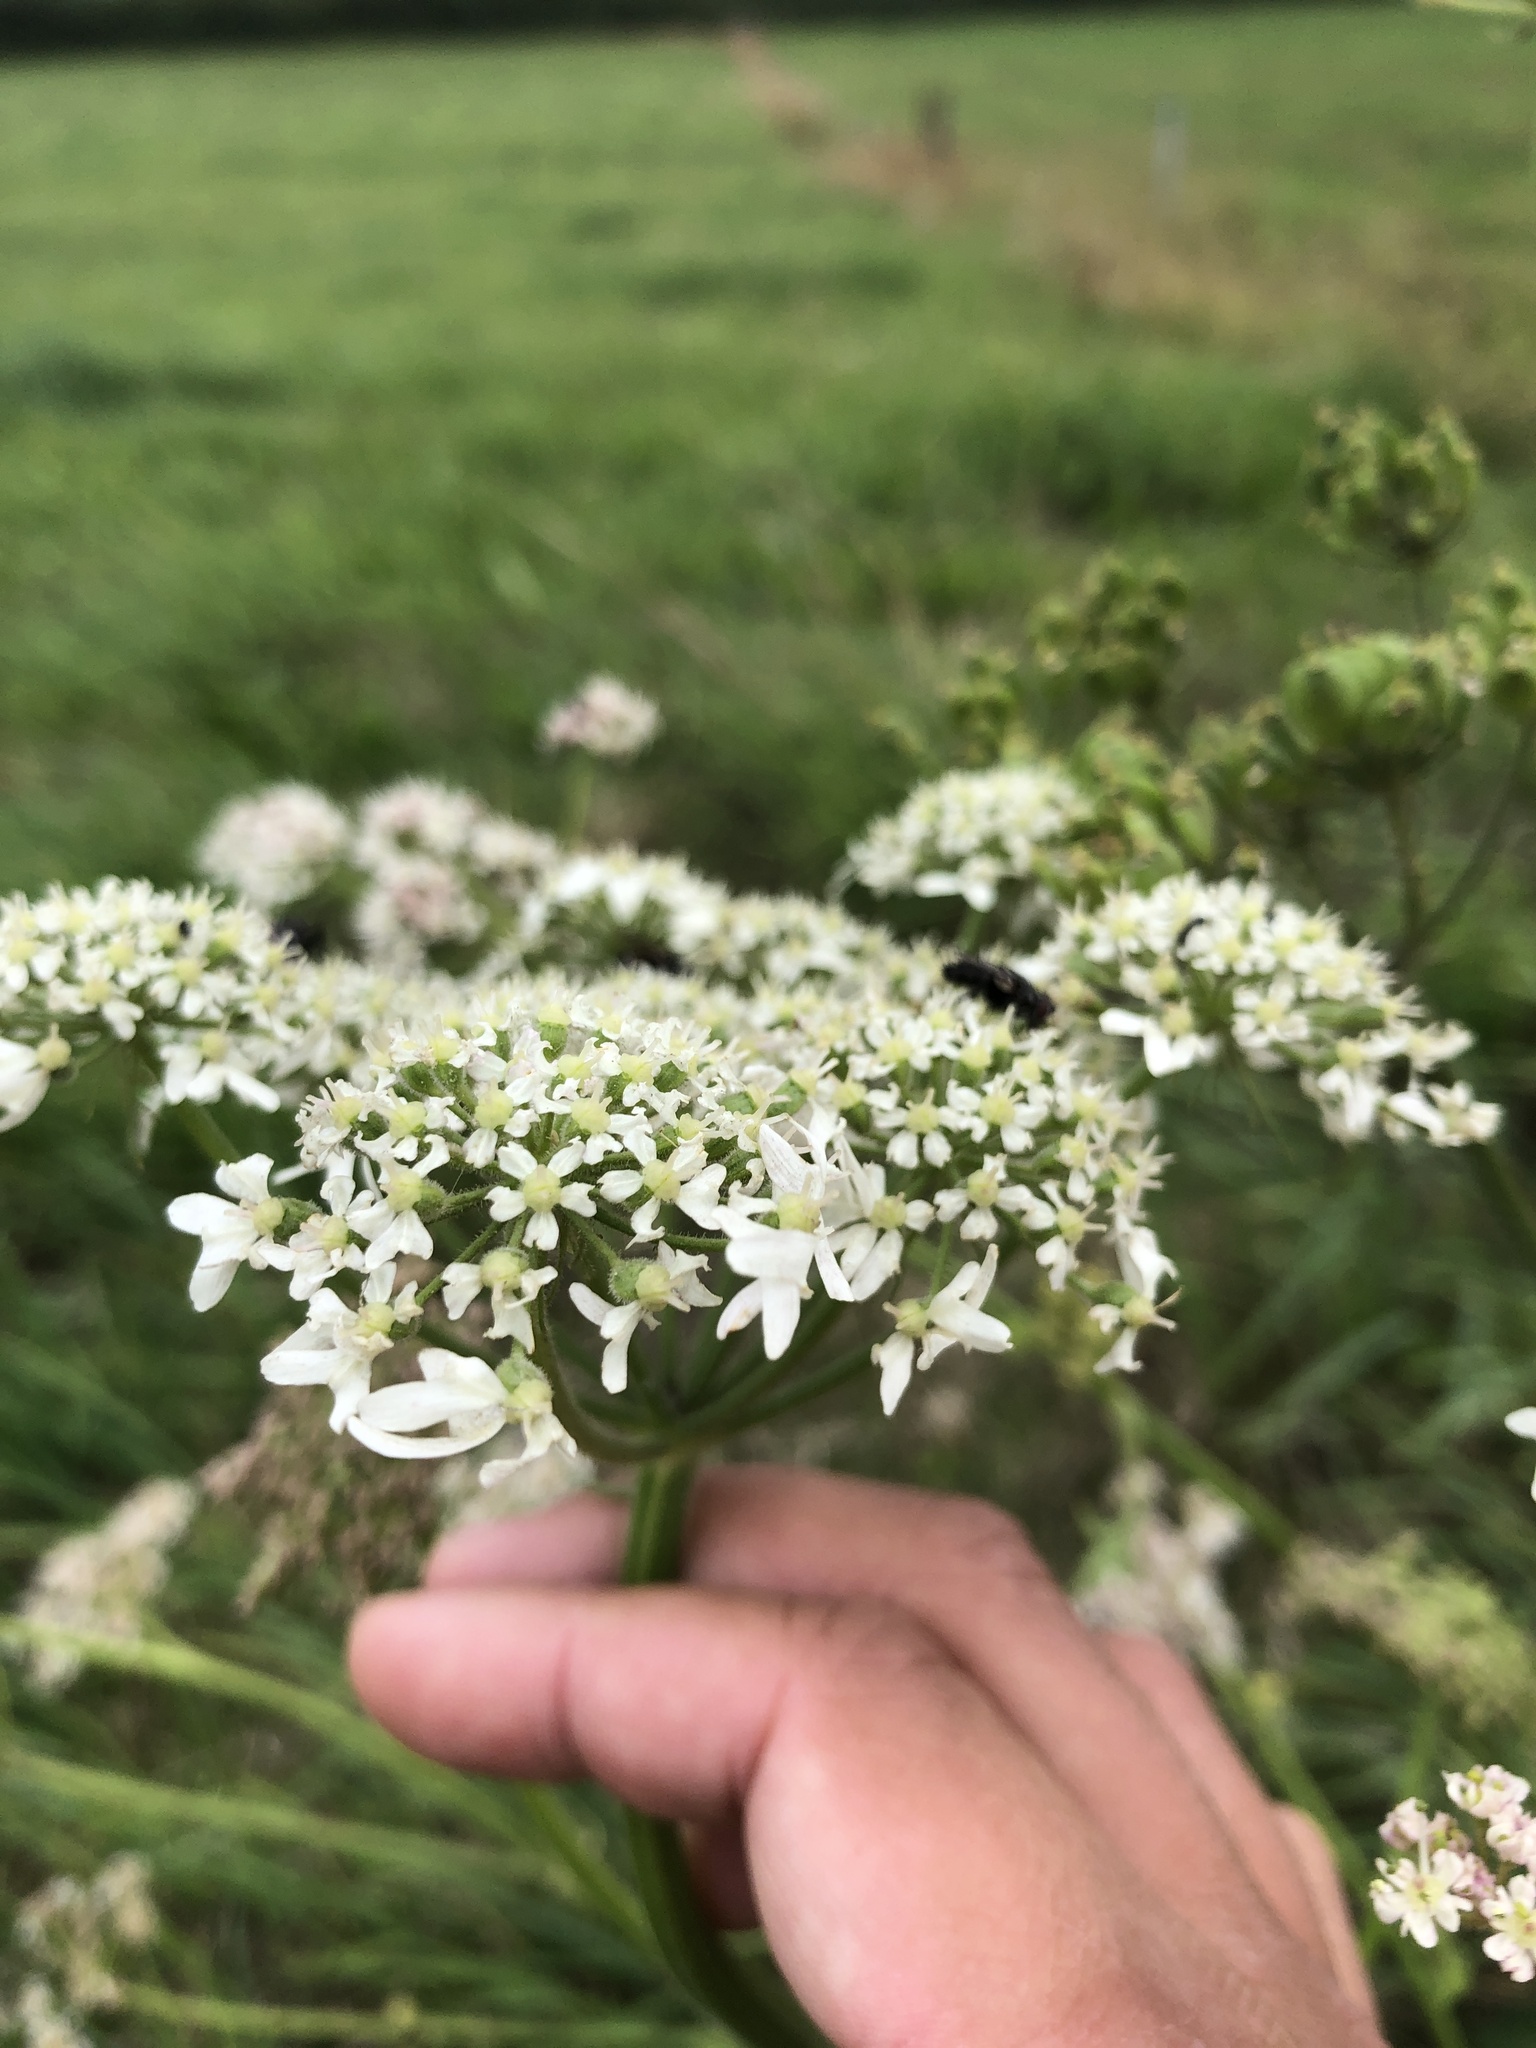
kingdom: Plantae
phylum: Tracheophyta
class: Magnoliopsida
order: Apiales
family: Apiaceae
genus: Heracleum
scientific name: Heracleum sphondylium
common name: Hogweed
